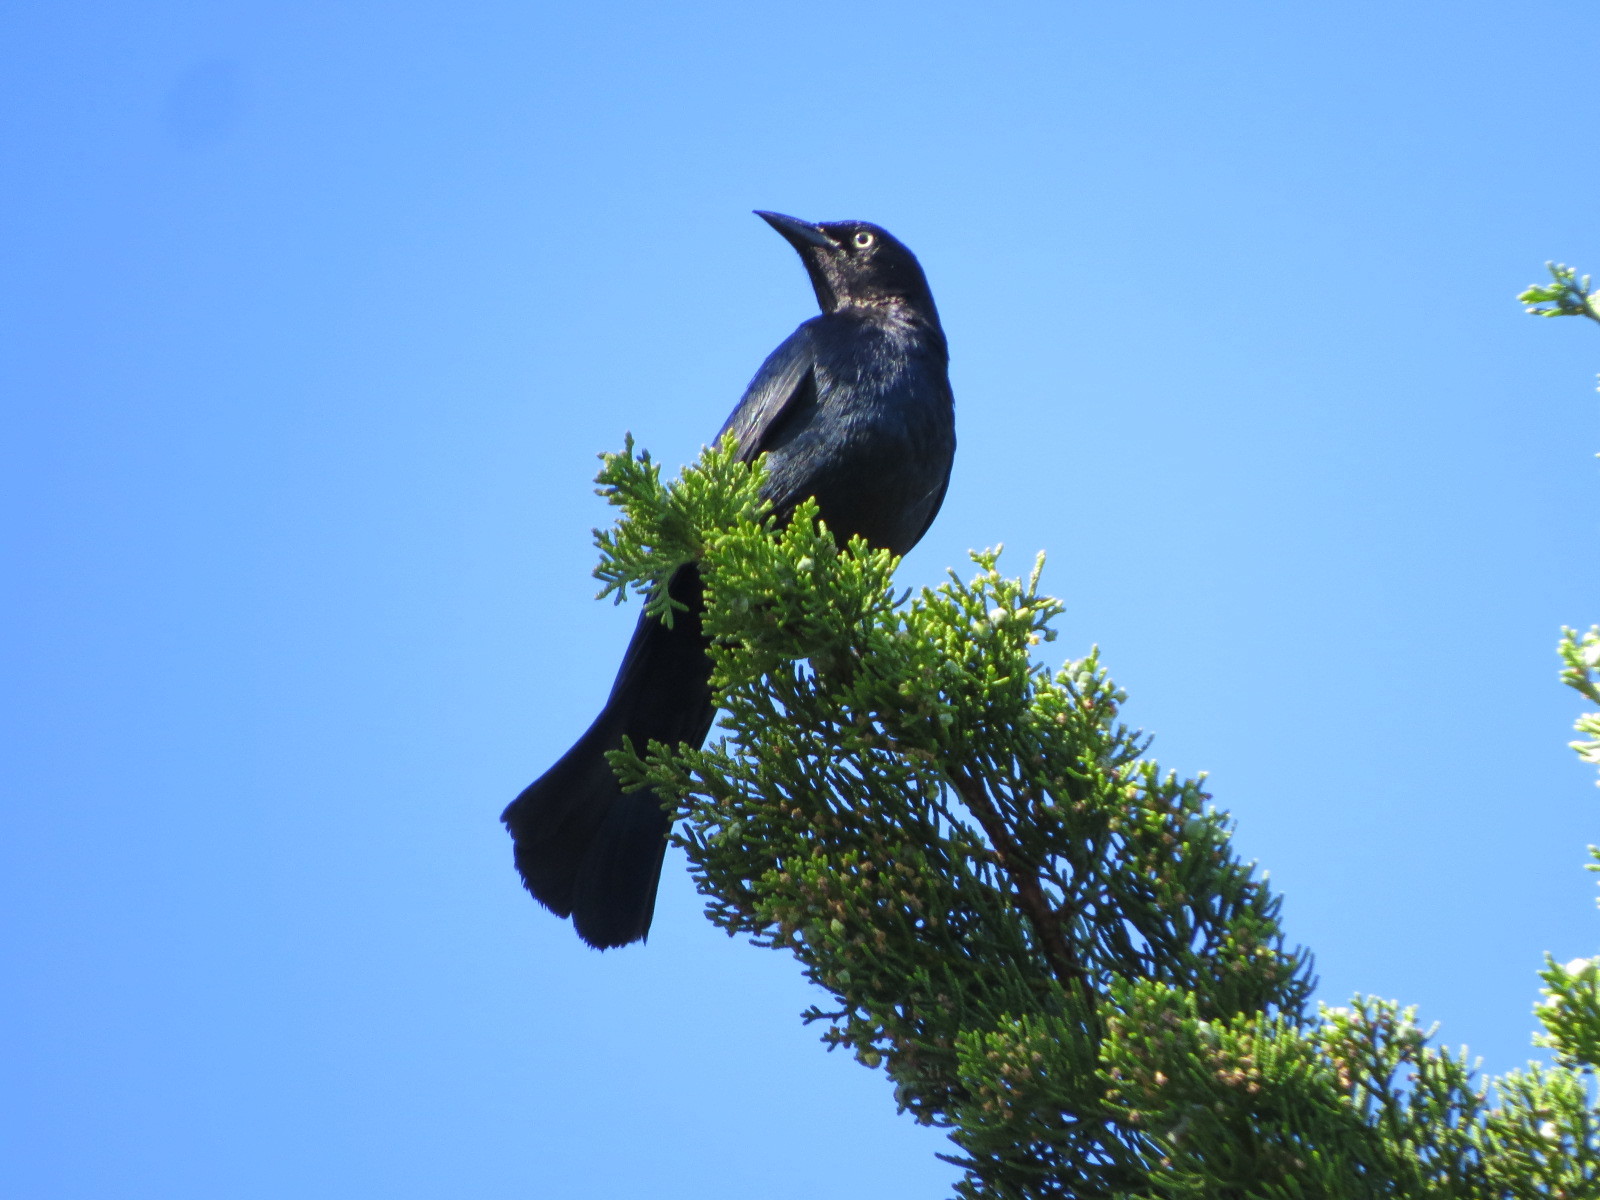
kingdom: Animalia
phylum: Chordata
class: Aves
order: Passeriformes
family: Icteridae
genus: Euphagus
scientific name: Euphagus cyanocephalus
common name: Brewer's blackbird
